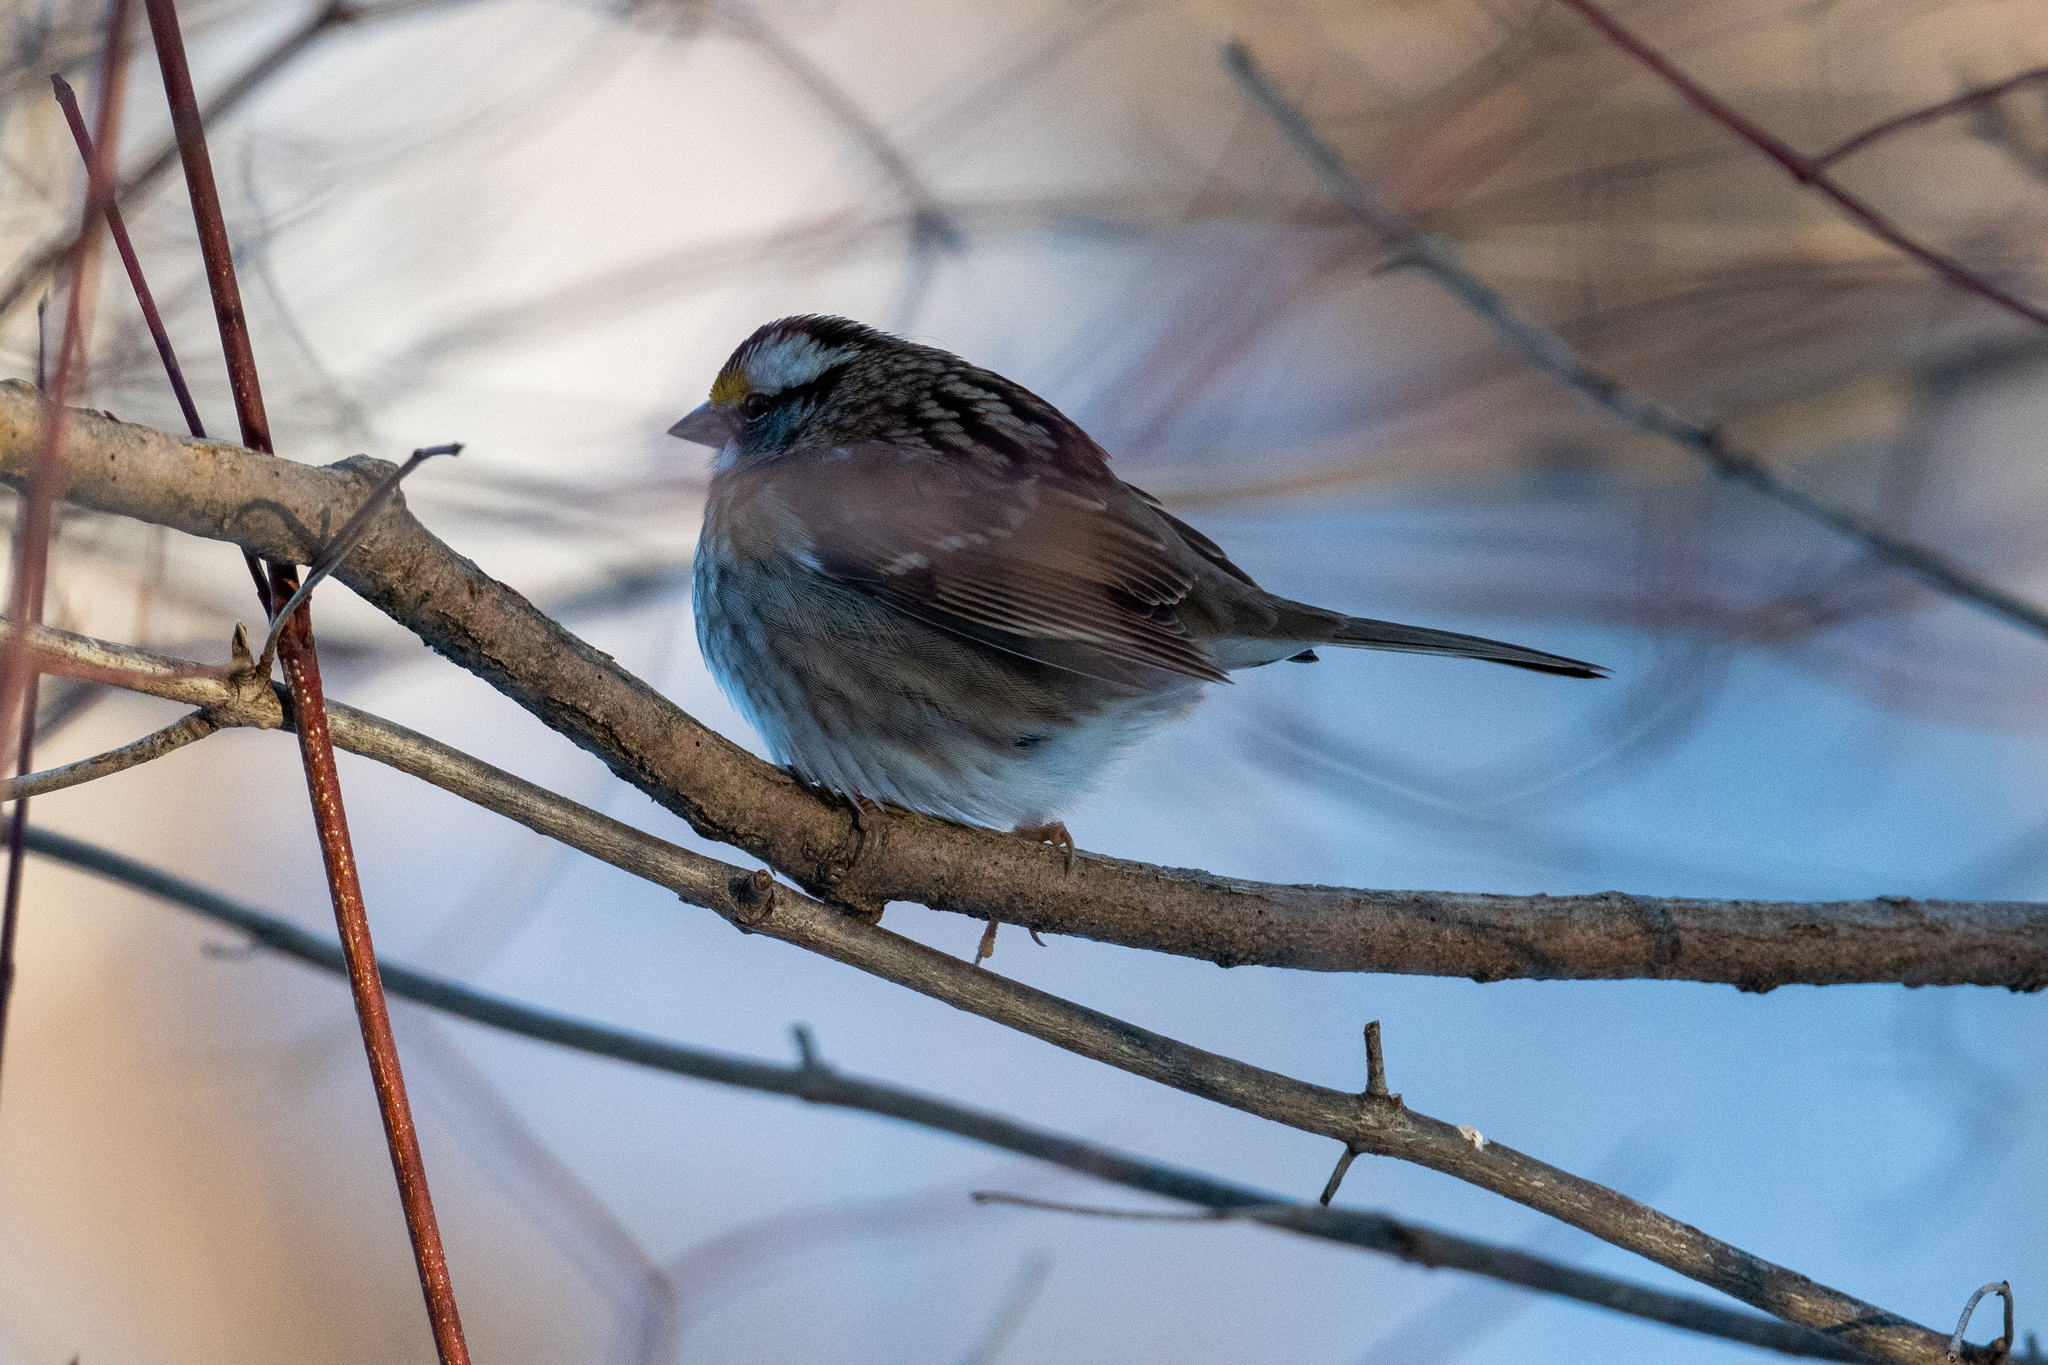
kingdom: Animalia
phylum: Chordata
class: Aves
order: Passeriformes
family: Passerellidae
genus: Zonotrichia
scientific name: Zonotrichia albicollis
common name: White-throated sparrow
